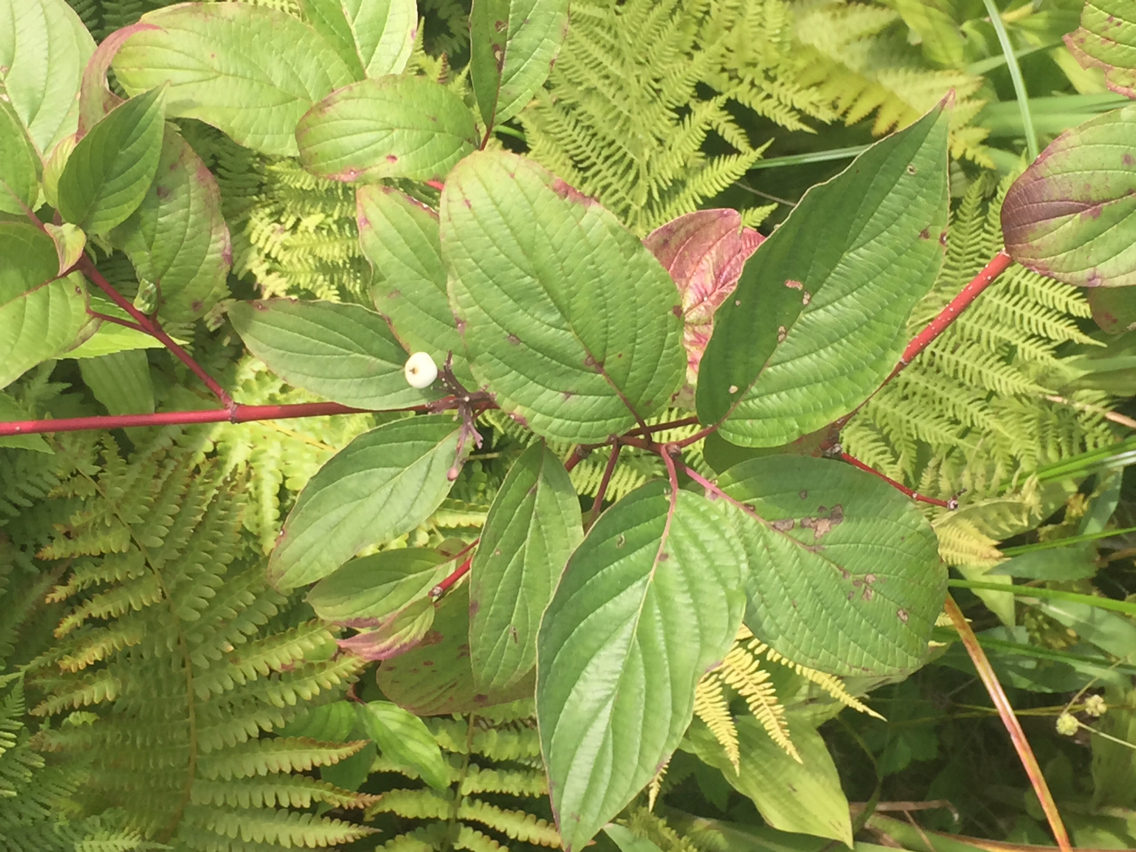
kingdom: Plantae
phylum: Tracheophyta
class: Magnoliopsida
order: Cornales
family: Cornaceae
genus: Cornus
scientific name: Cornus sericea
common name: Red-osier dogwood
